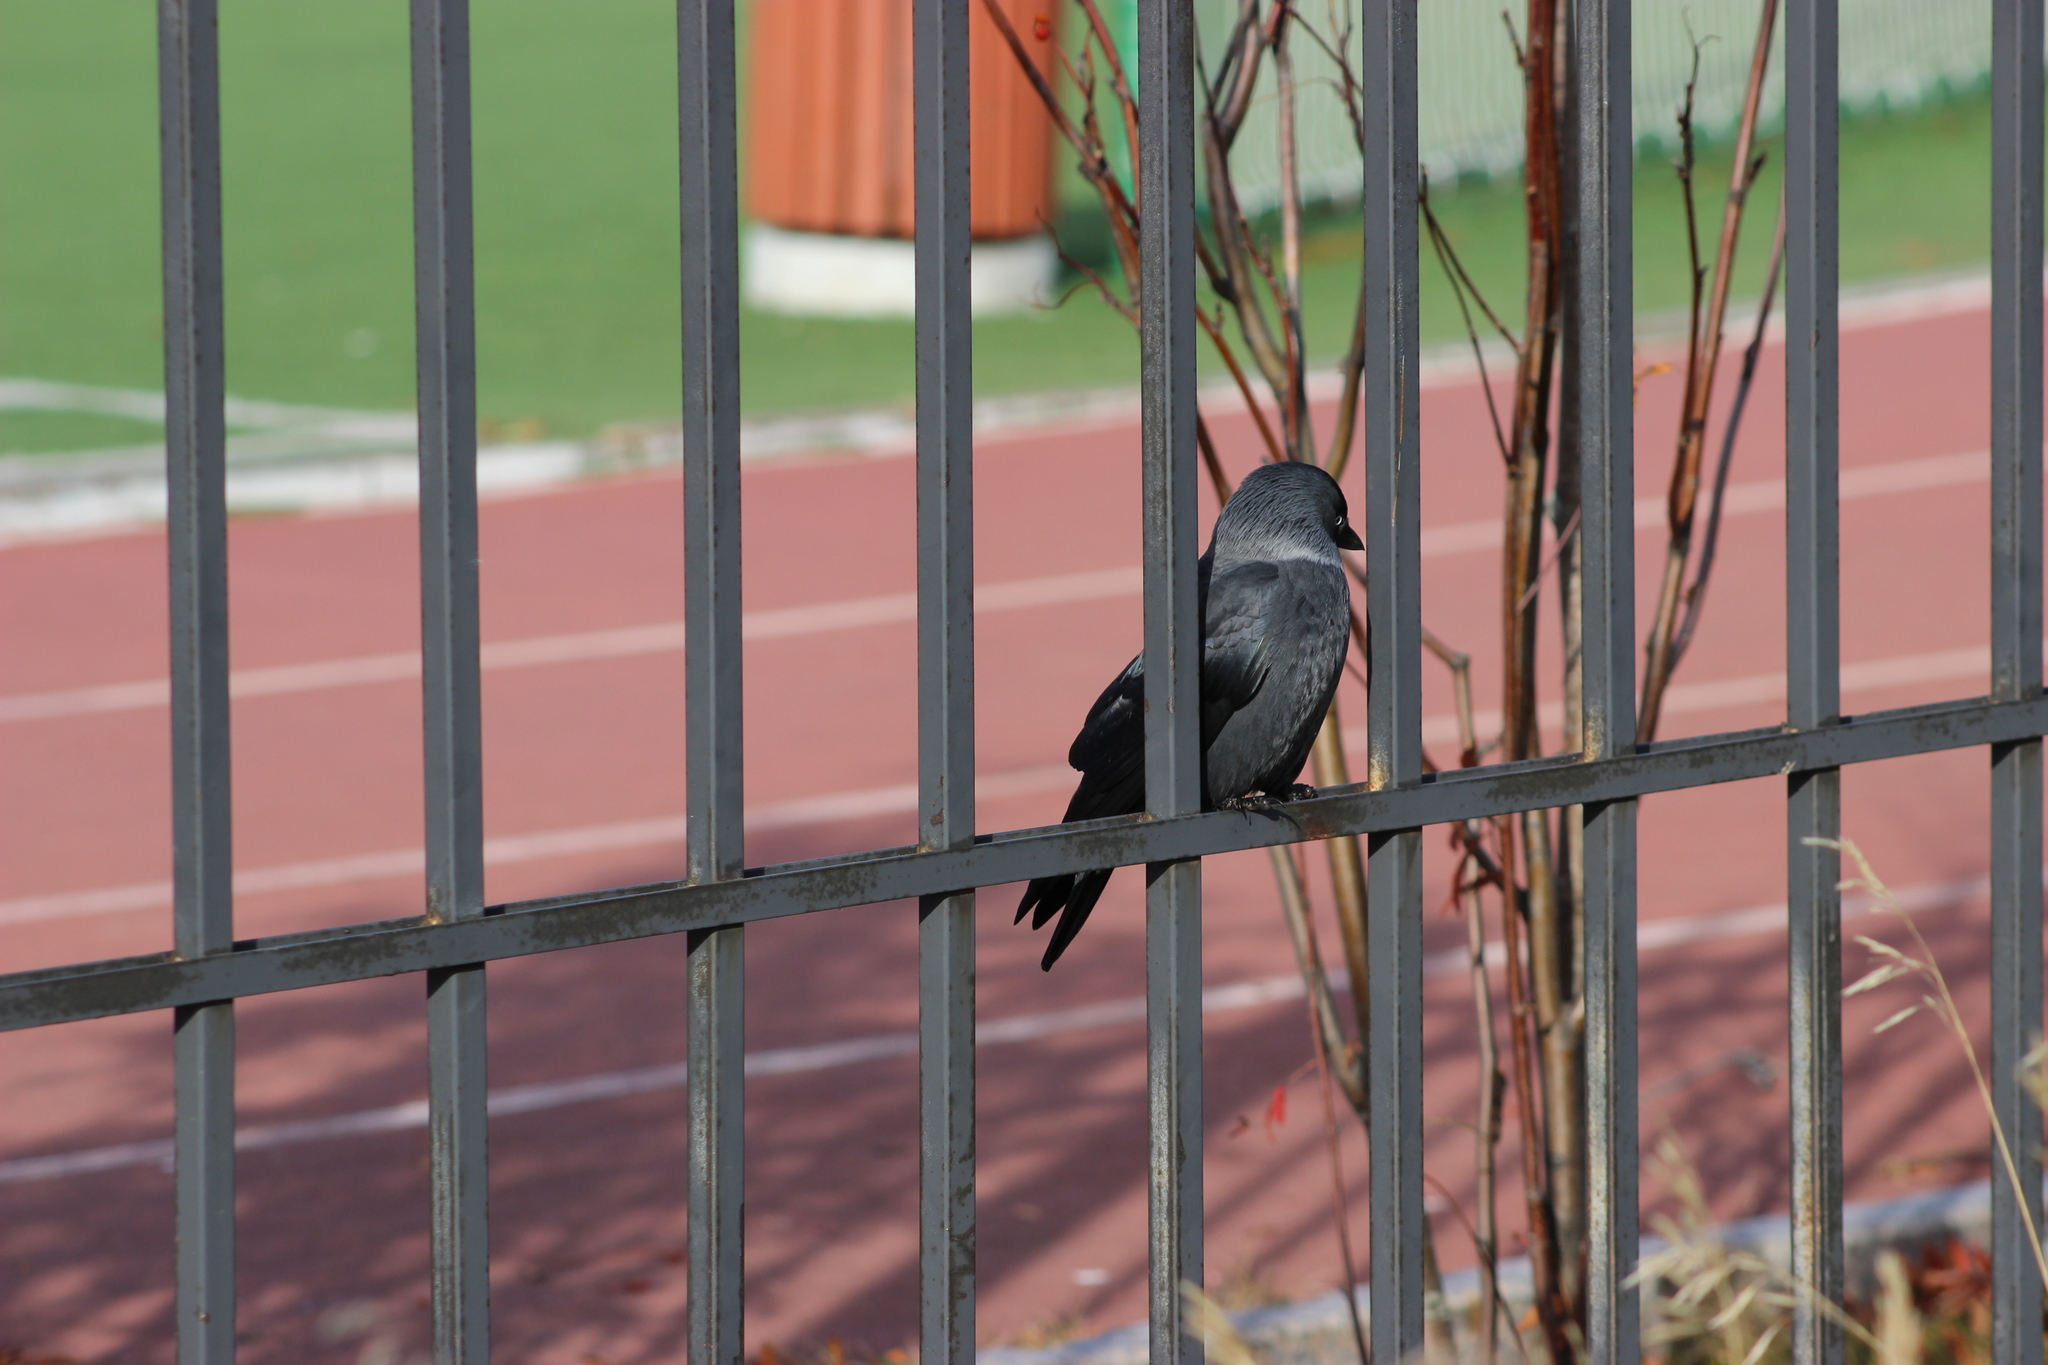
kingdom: Animalia
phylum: Chordata
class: Aves
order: Passeriformes
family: Corvidae
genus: Coloeus
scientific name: Coloeus monedula
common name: Western jackdaw
